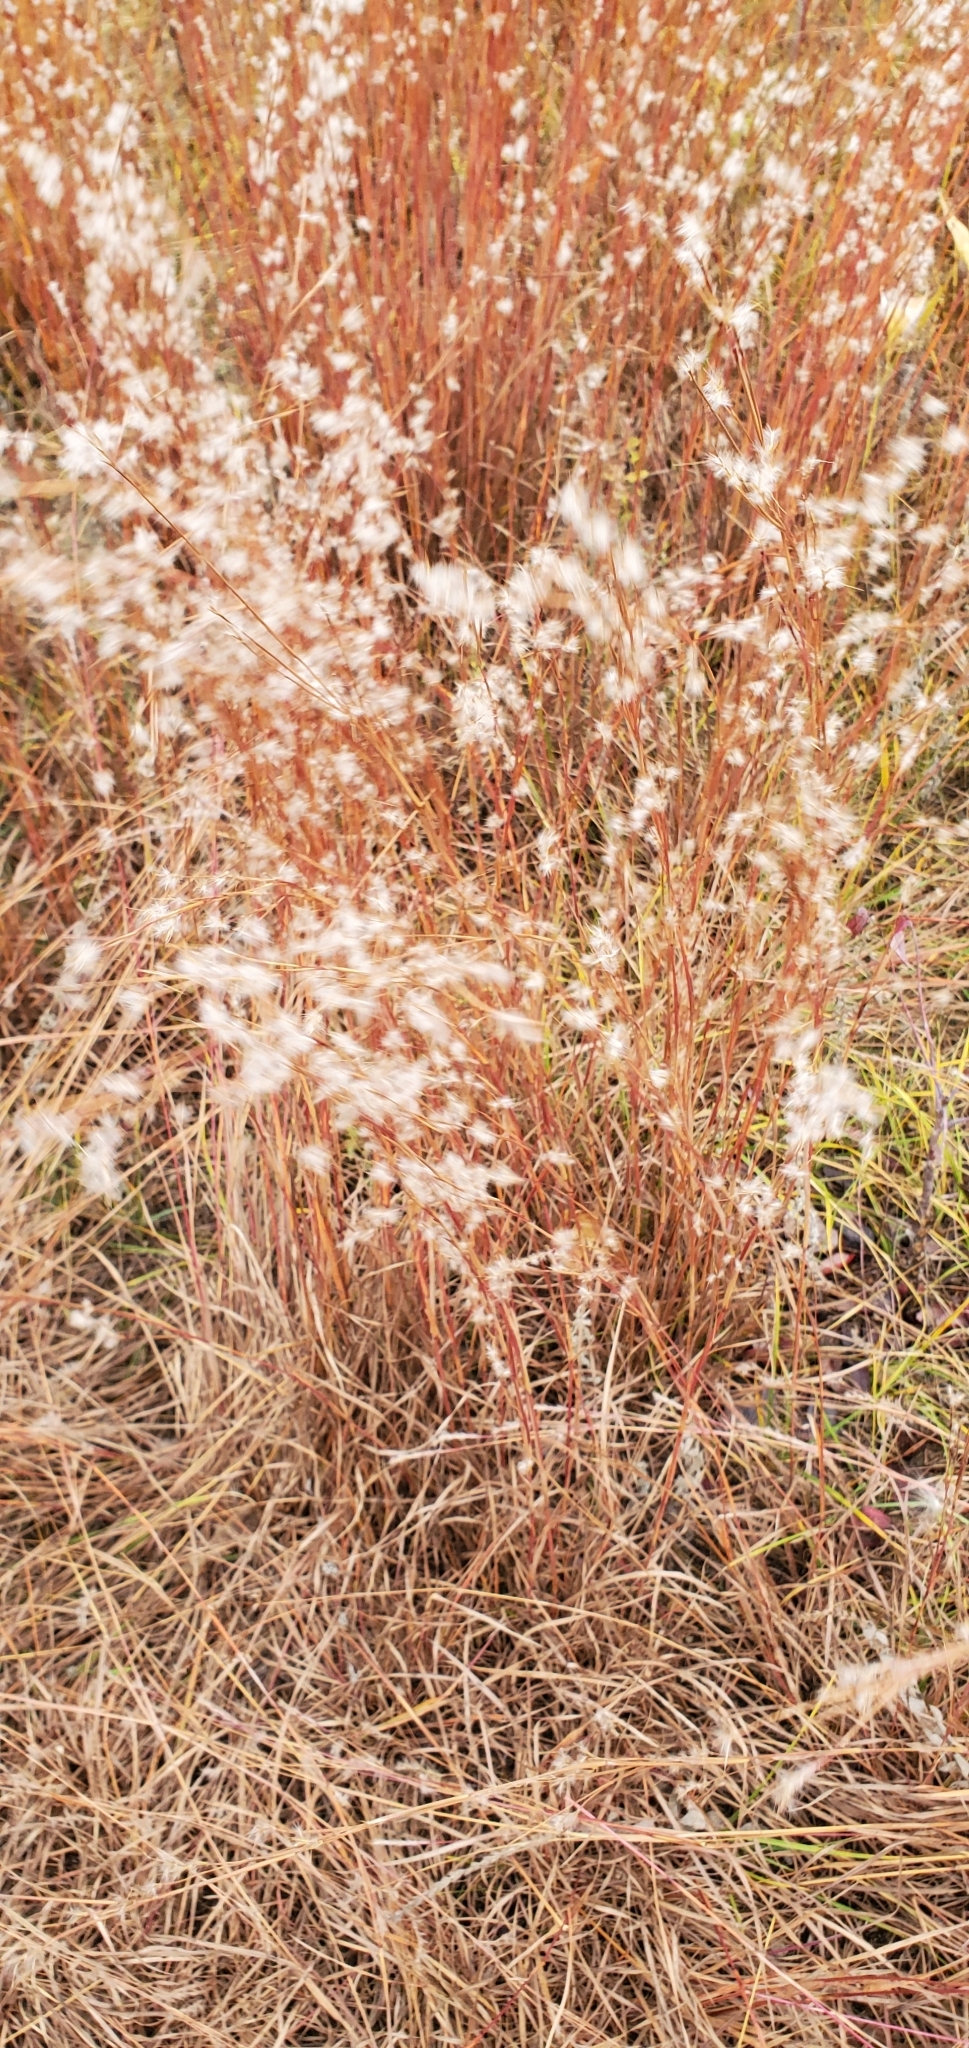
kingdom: Plantae
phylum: Tracheophyta
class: Liliopsida
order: Poales
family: Poaceae
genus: Schizachyrium
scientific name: Schizachyrium scoparium
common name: Little bluestem
